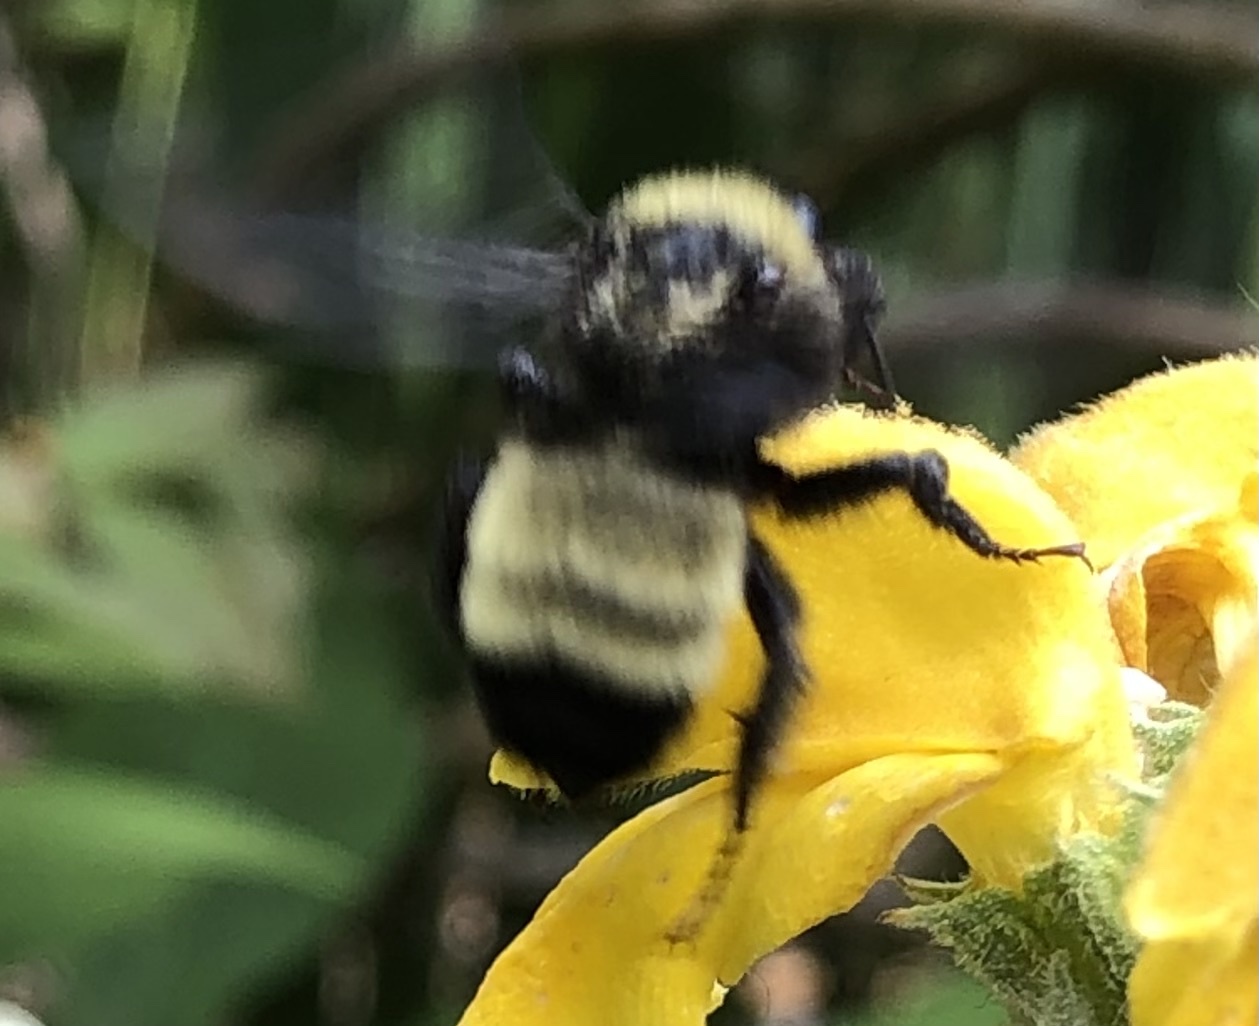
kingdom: Animalia
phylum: Arthropoda
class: Insecta
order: Hymenoptera
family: Apidae
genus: Bombus
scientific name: Bombus pensylvanicus
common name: Bumble bee
